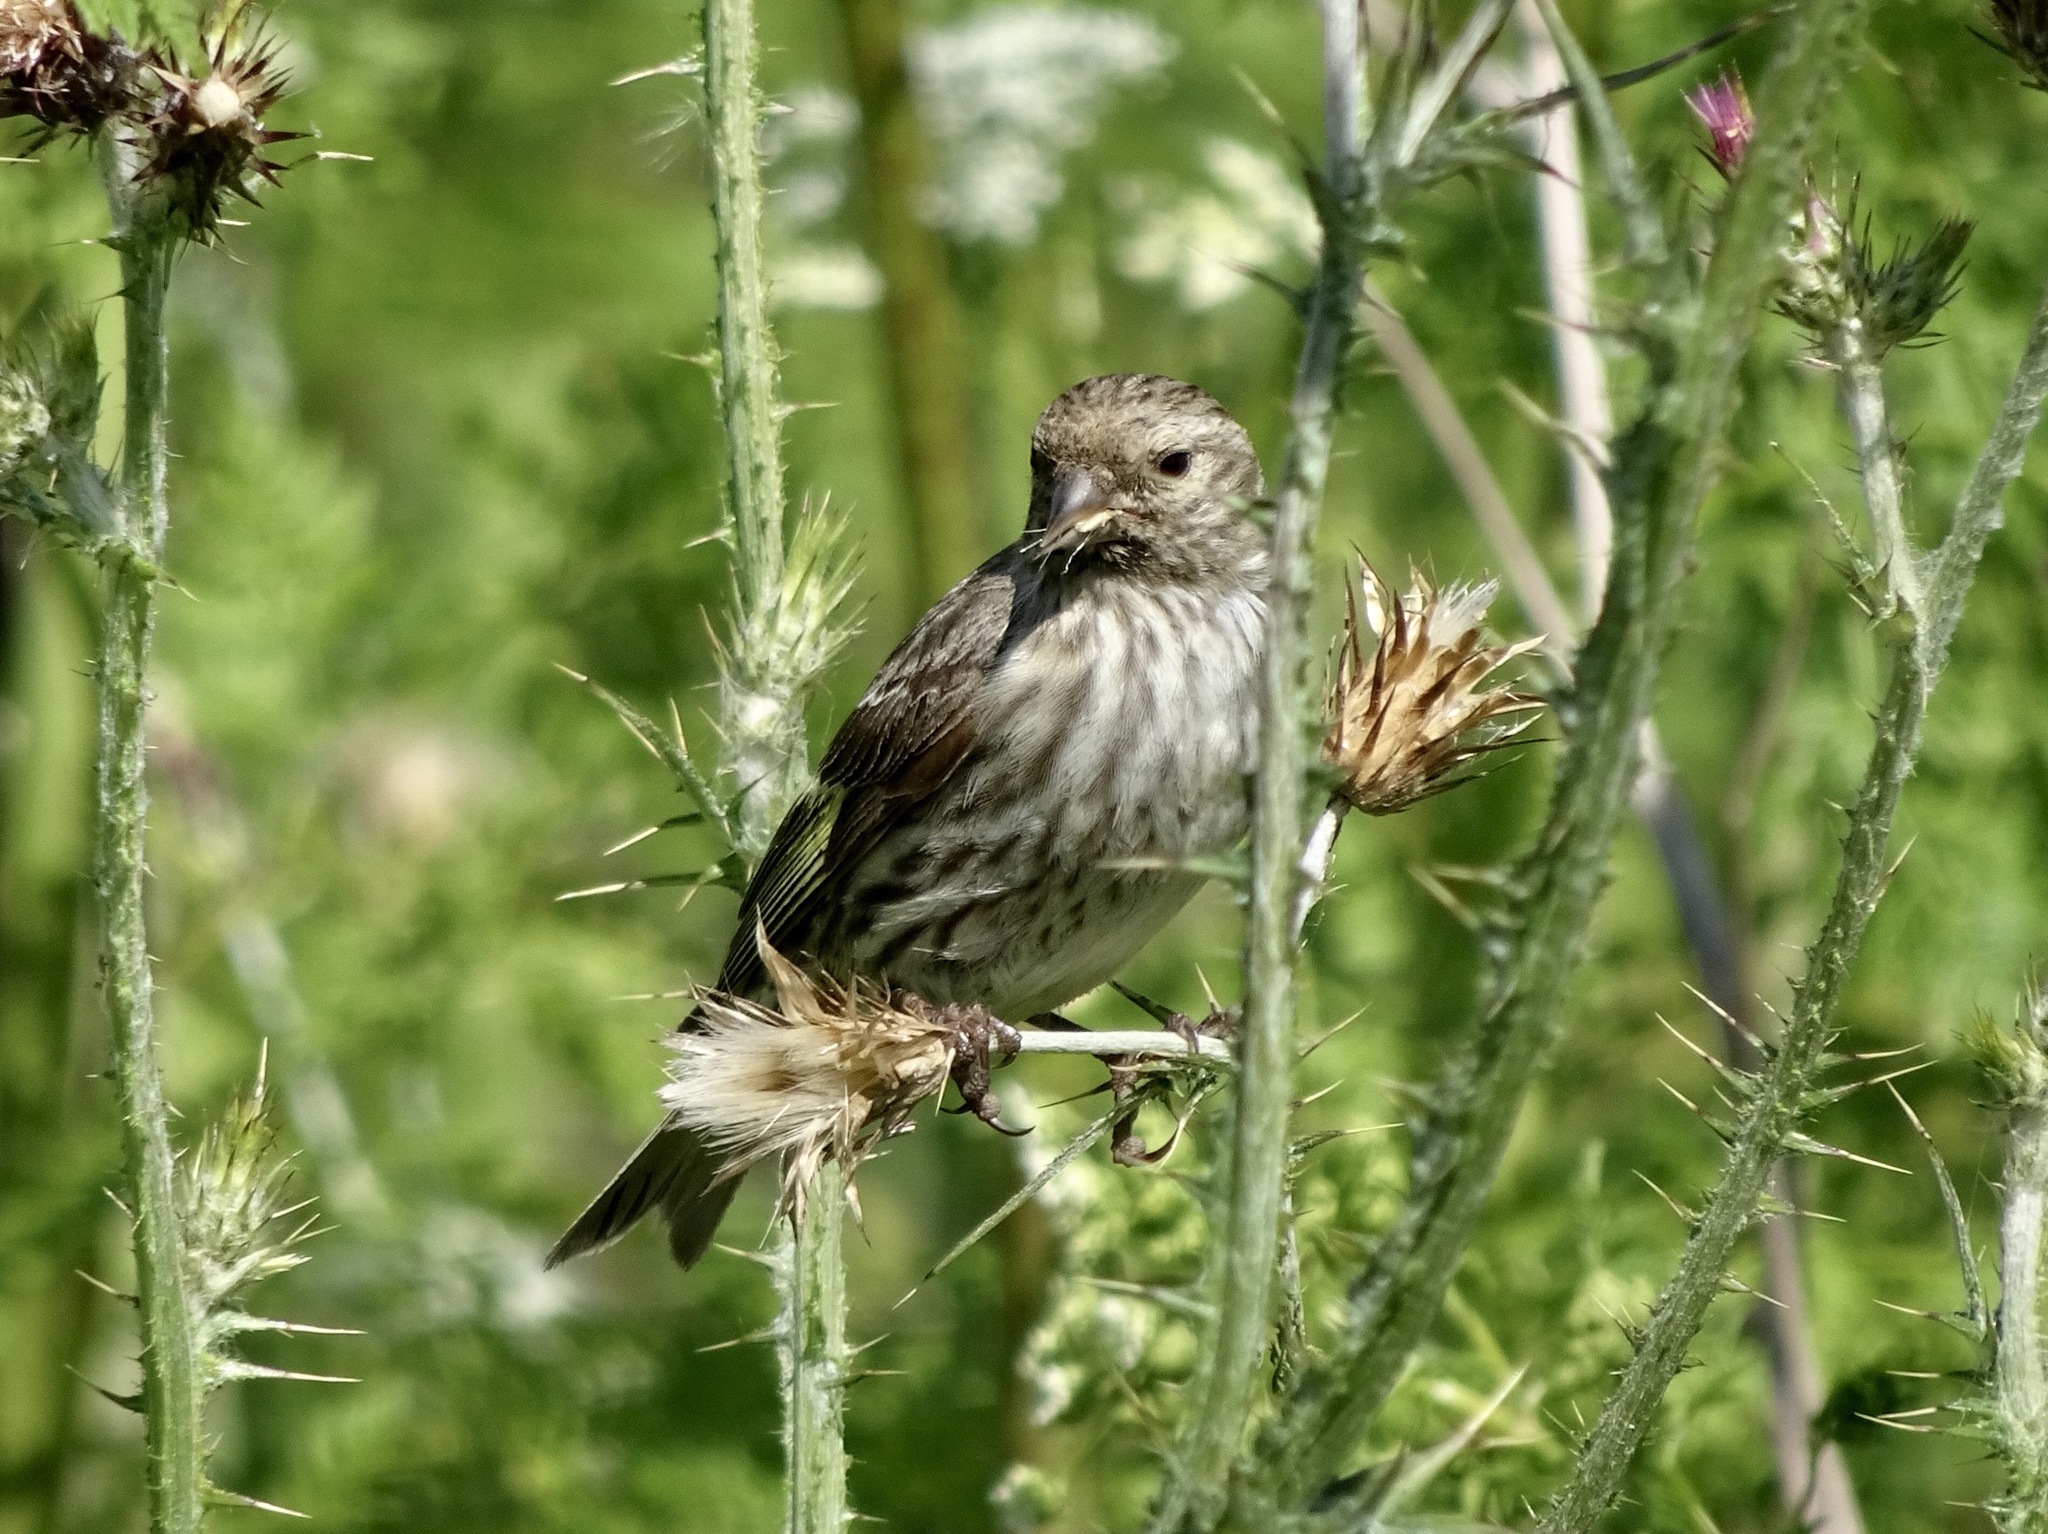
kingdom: Animalia
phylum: Chordata
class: Aves
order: Passeriformes
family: Fringillidae
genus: Spinus
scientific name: Spinus pinus
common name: Pine siskin
